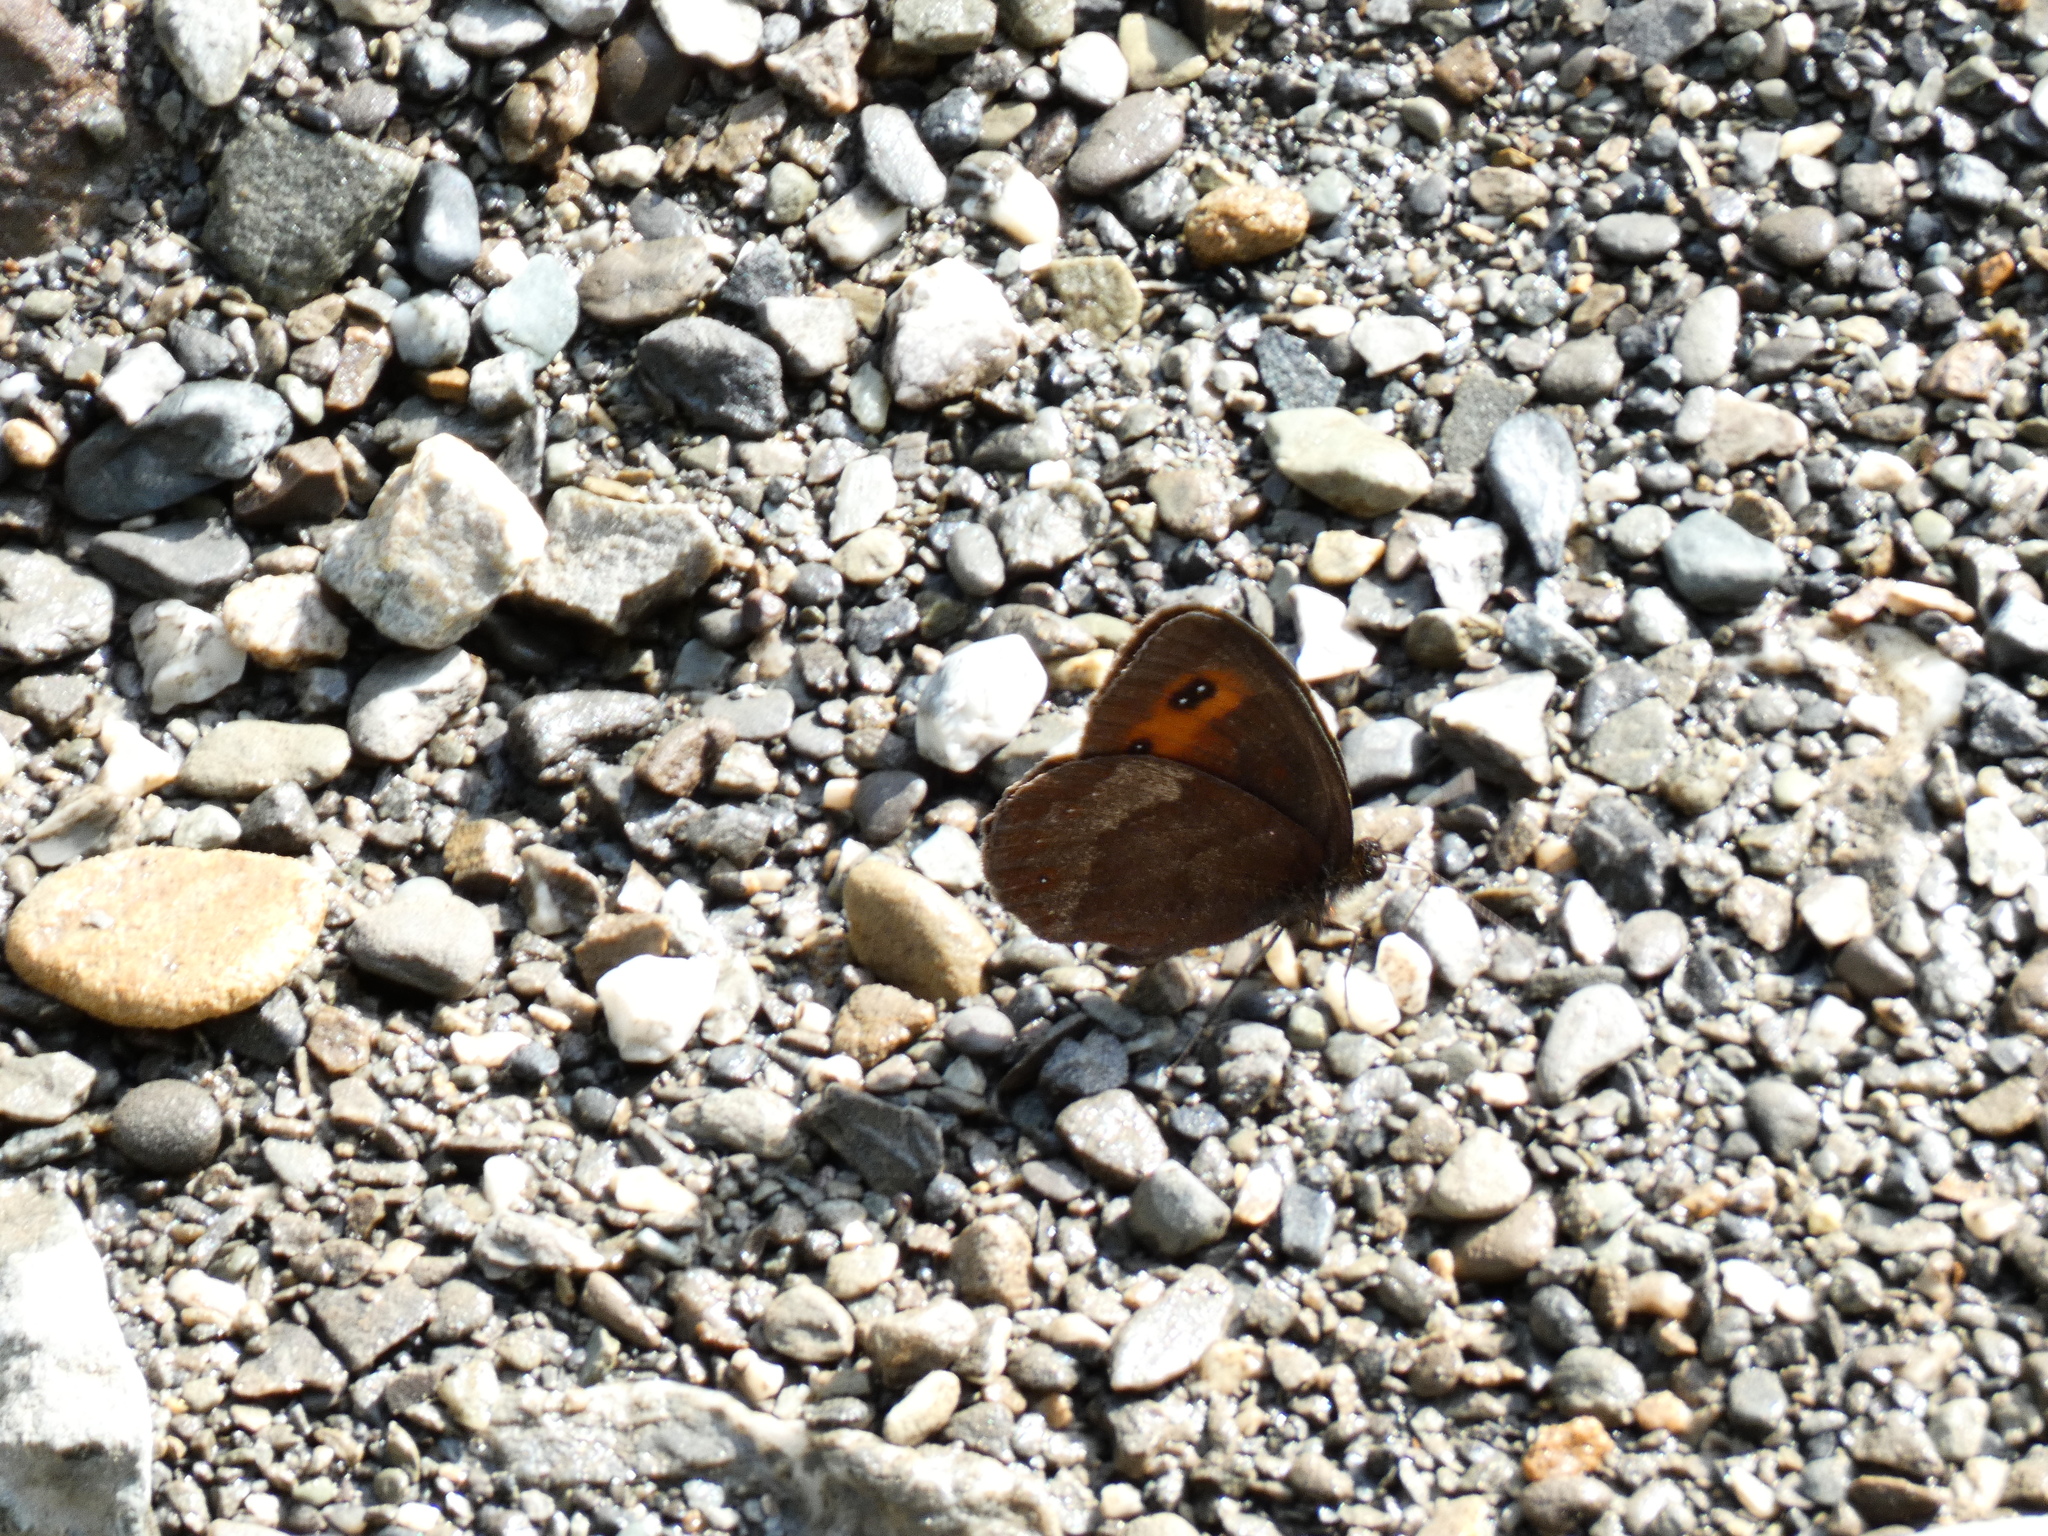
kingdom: Animalia
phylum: Arthropoda
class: Insecta
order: Lepidoptera
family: Nymphalidae
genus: Erebia
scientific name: Erebia aethiops
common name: Scotch argus
